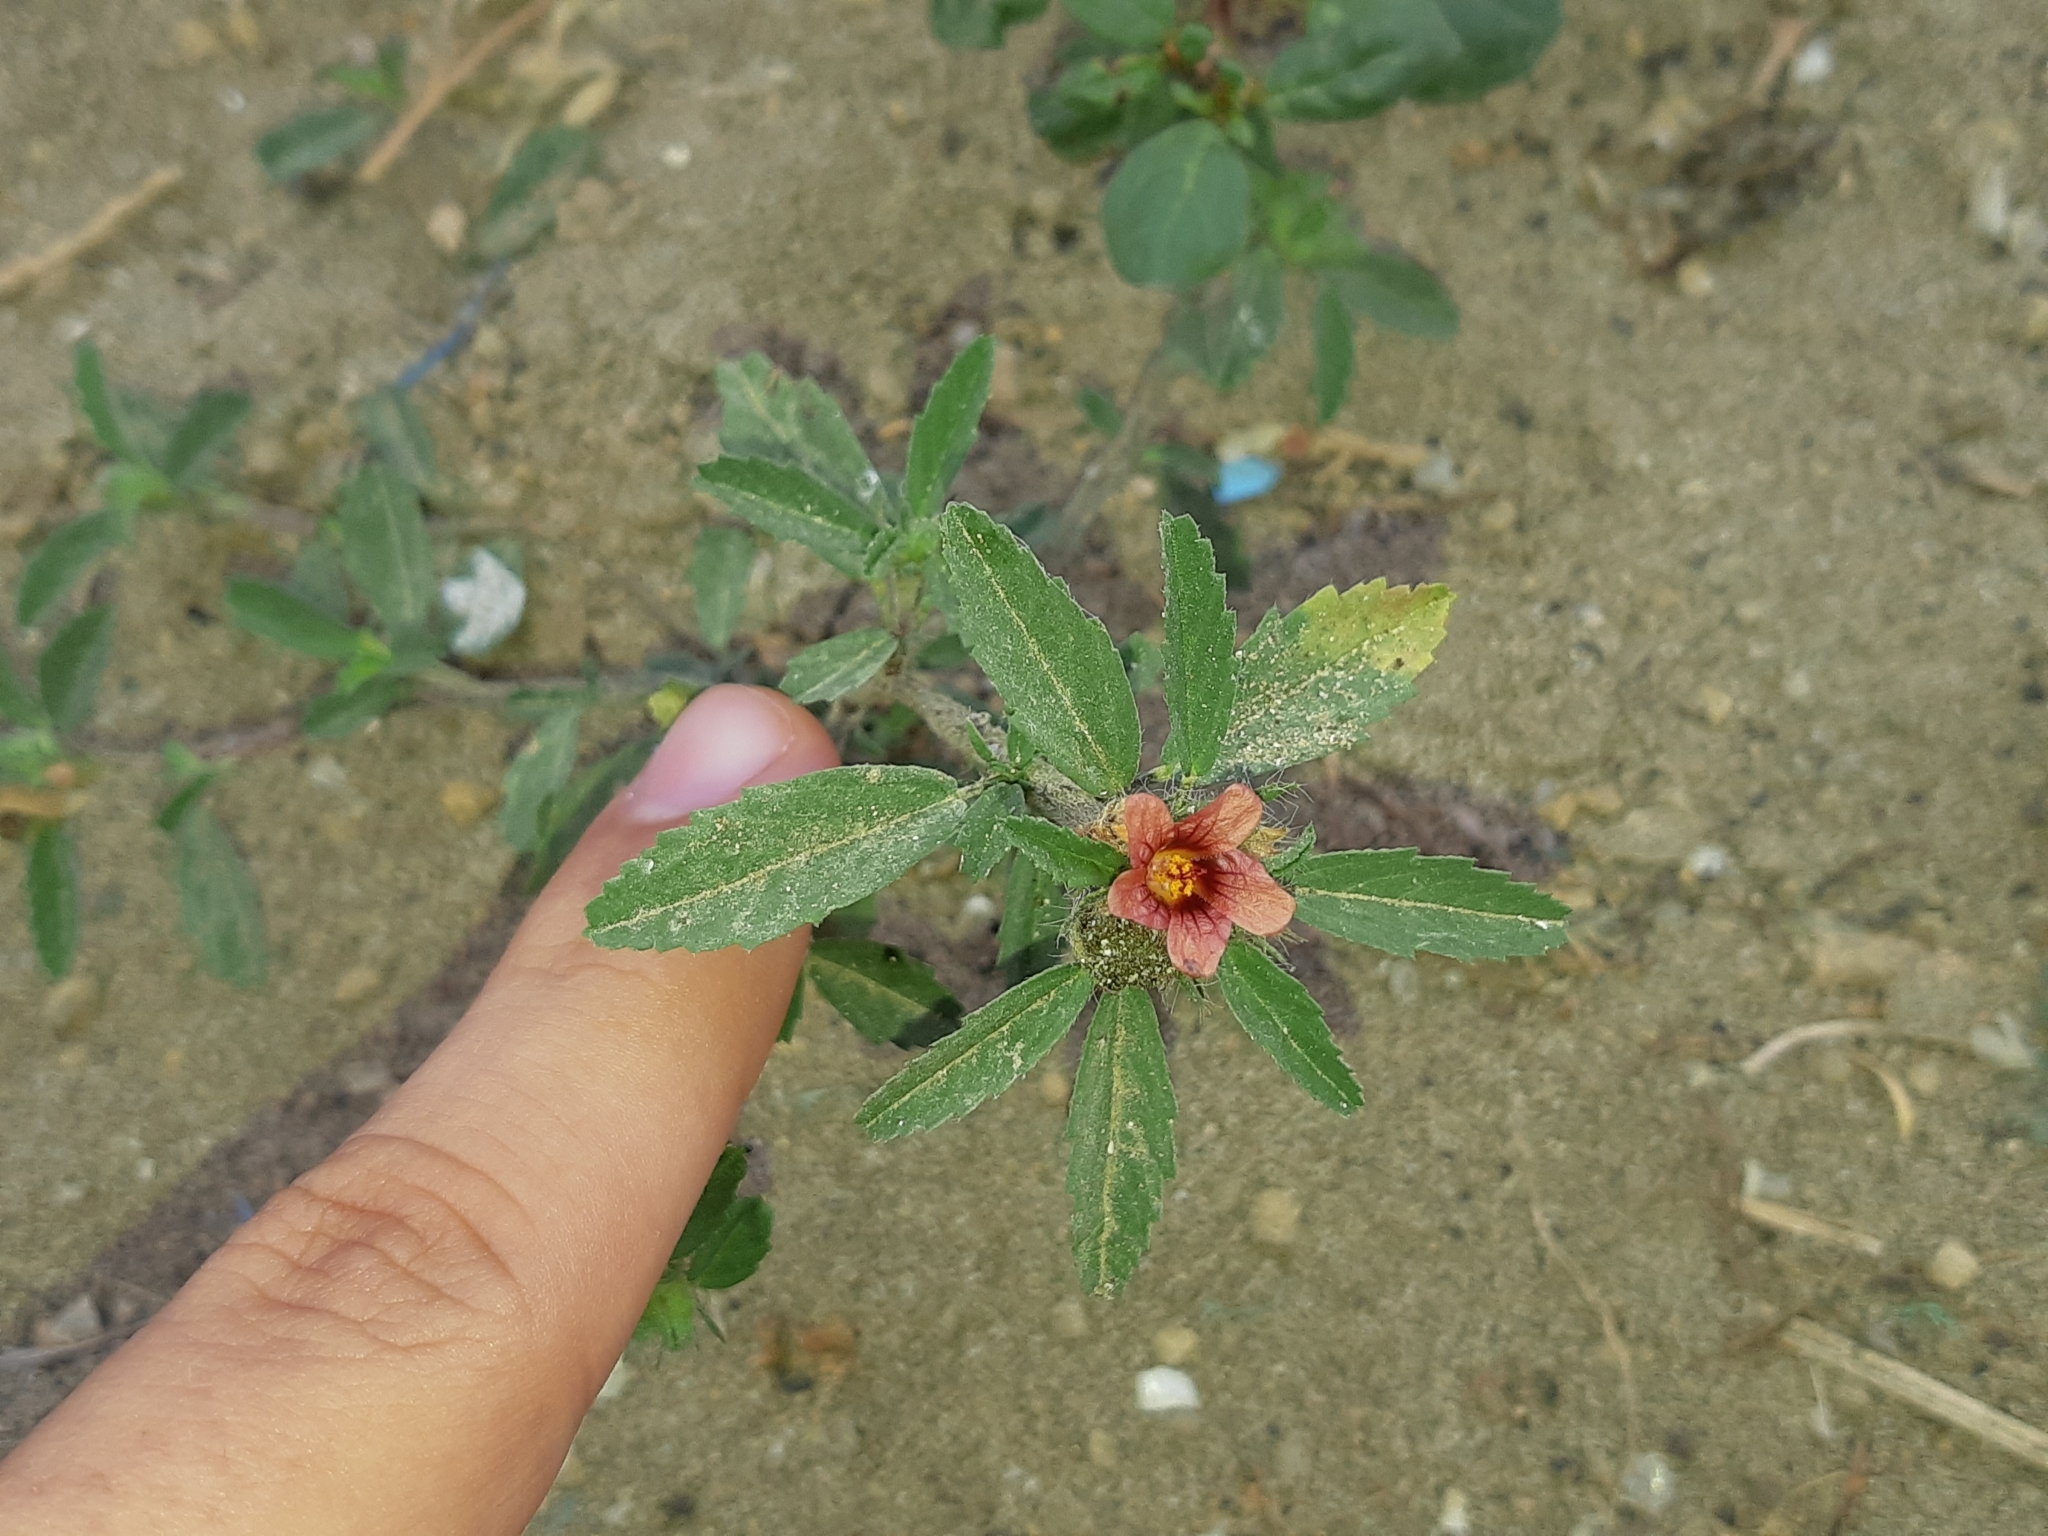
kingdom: Plantae
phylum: Tracheophyta
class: Magnoliopsida
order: Malvales
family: Malvaceae
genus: Sida
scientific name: Sida ciliaris
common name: Bracted fanpetals
